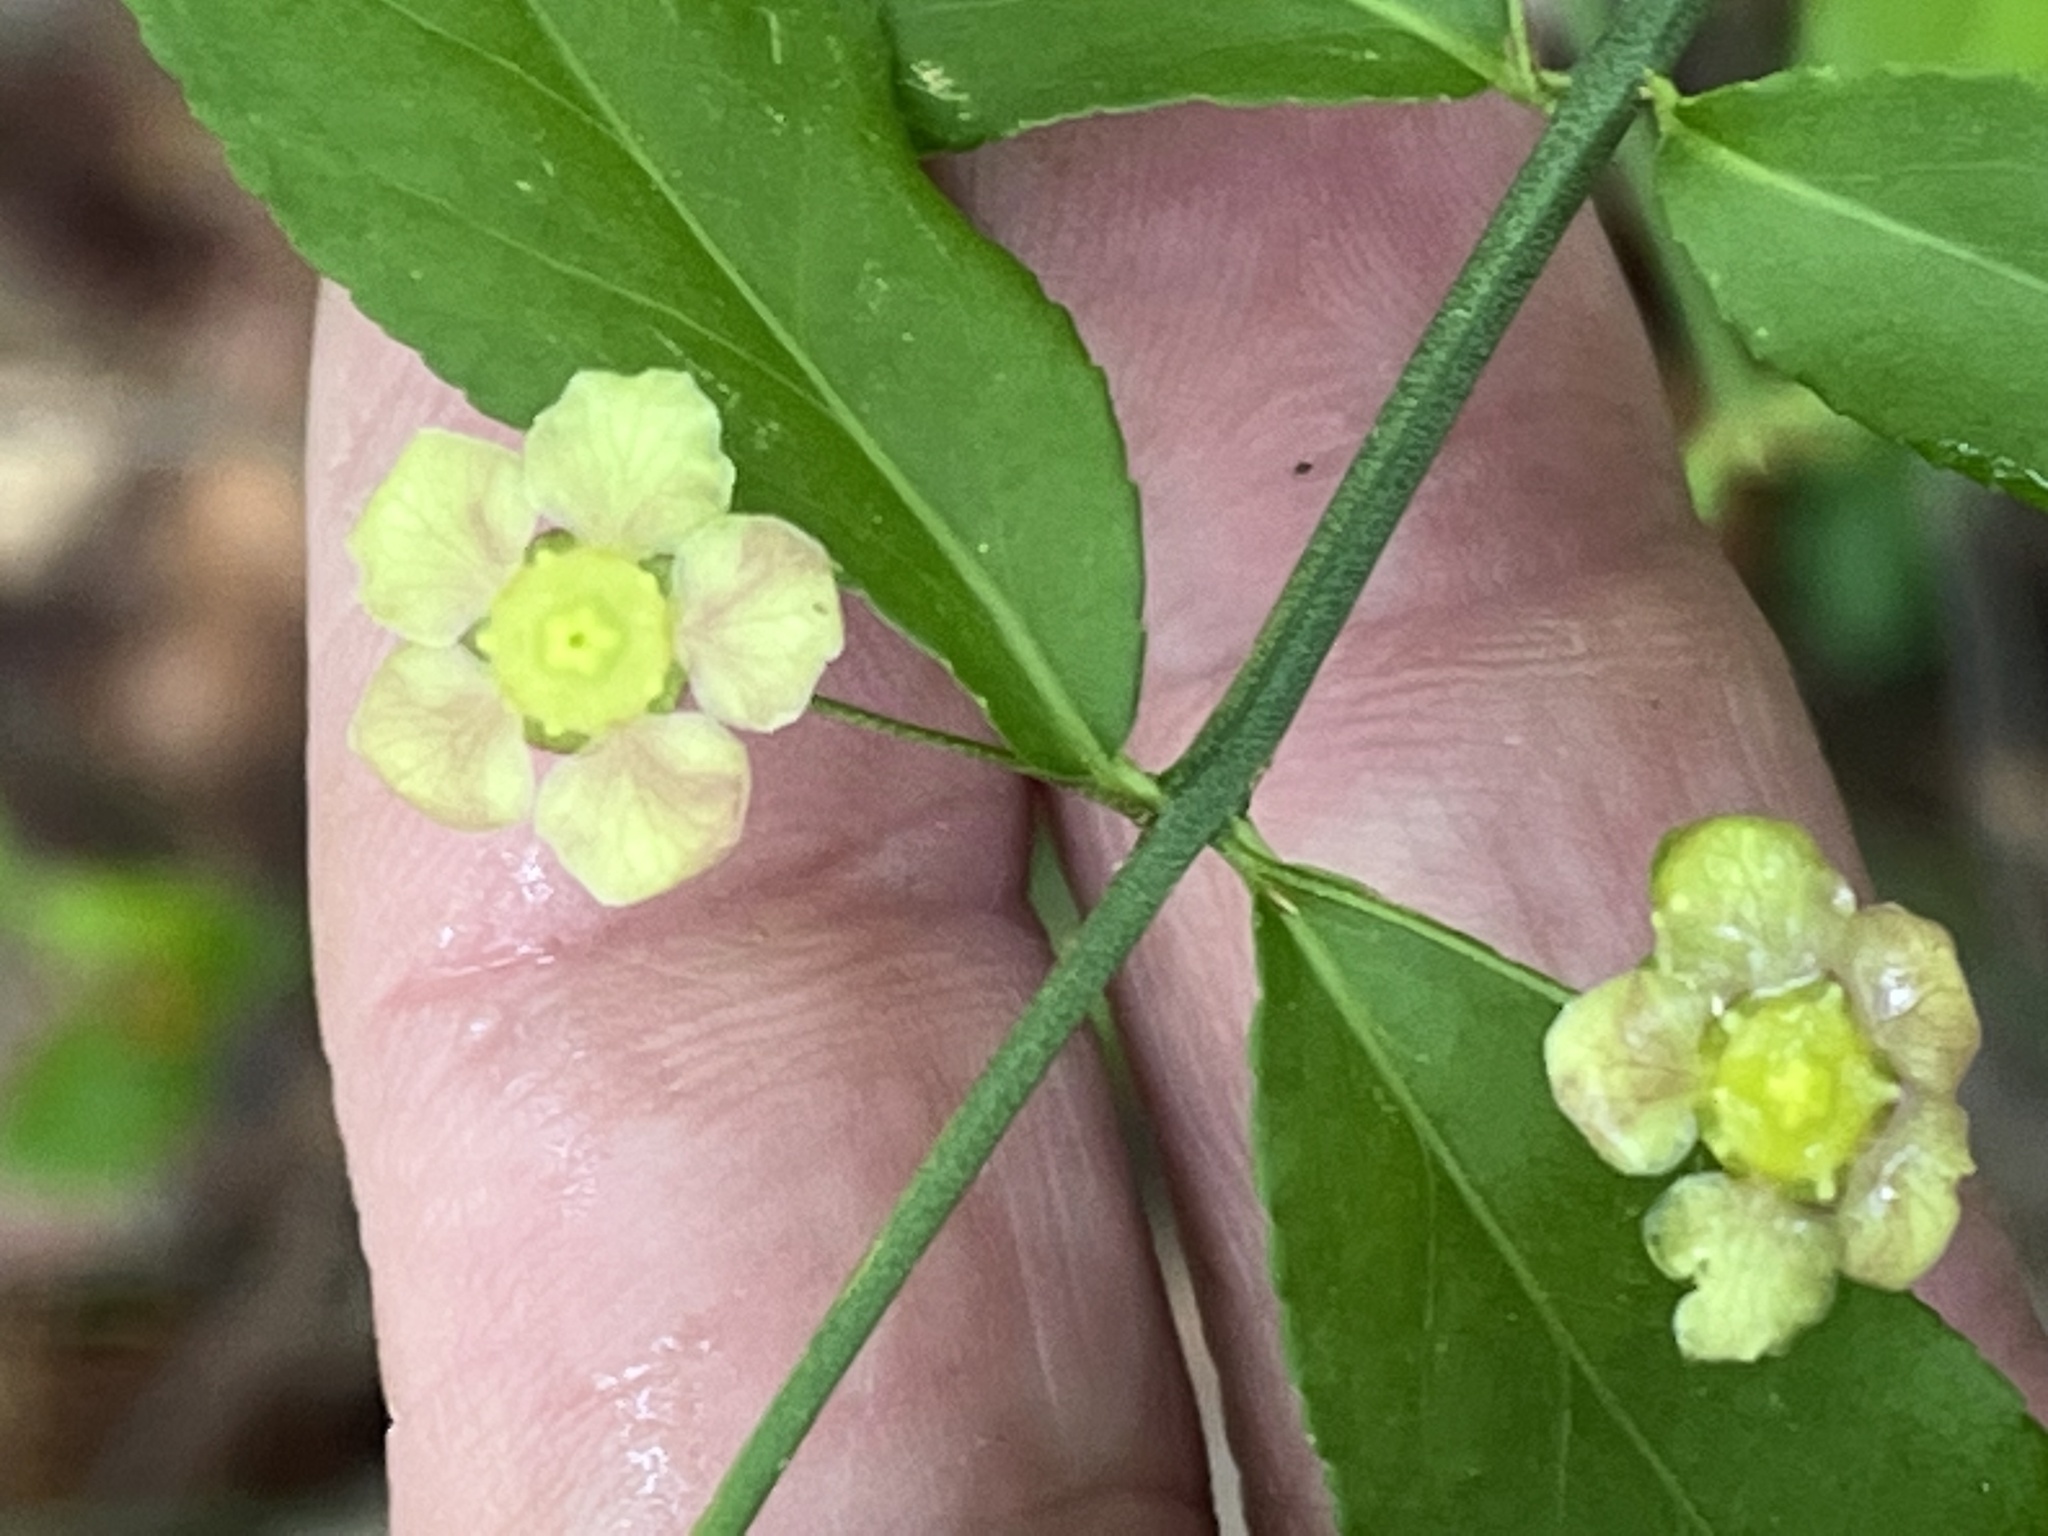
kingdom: Plantae
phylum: Tracheophyta
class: Magnoliopsida
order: Celastrales
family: Celastraceae
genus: Euonymus
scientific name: Euonymus americanus
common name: Bursting-heart
